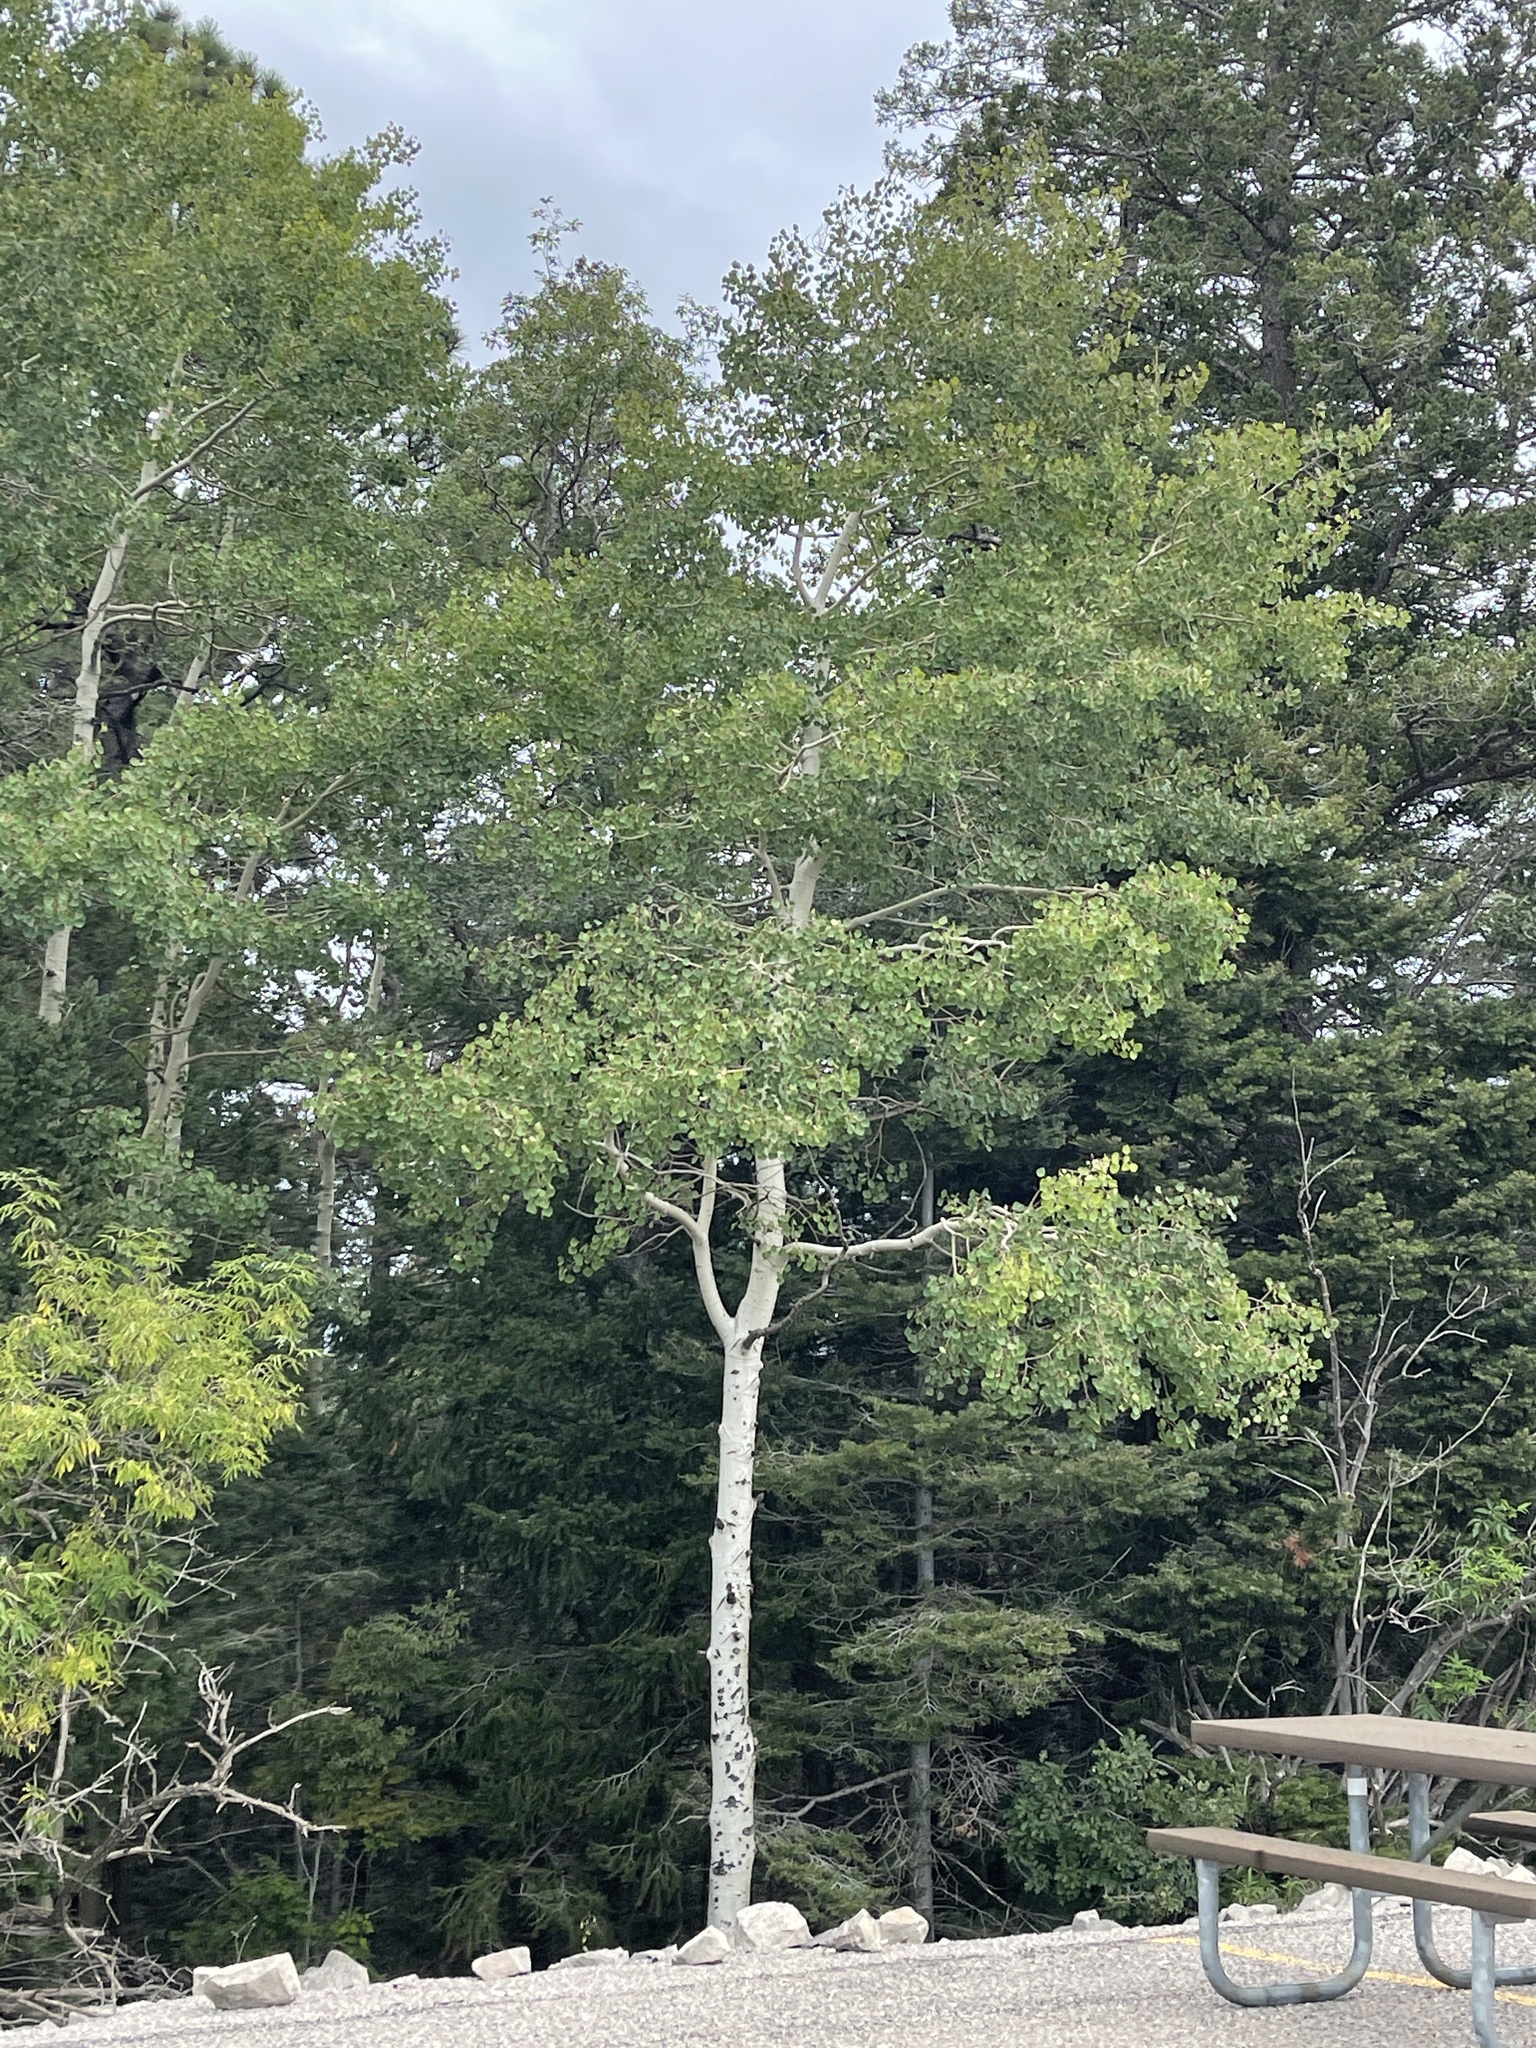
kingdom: Plantae
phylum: Tracheophyta
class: Magnoliopsida
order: Malpighiales
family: Salicaceae
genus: Populus
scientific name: Populus tremuloides
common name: Quaking aspen
